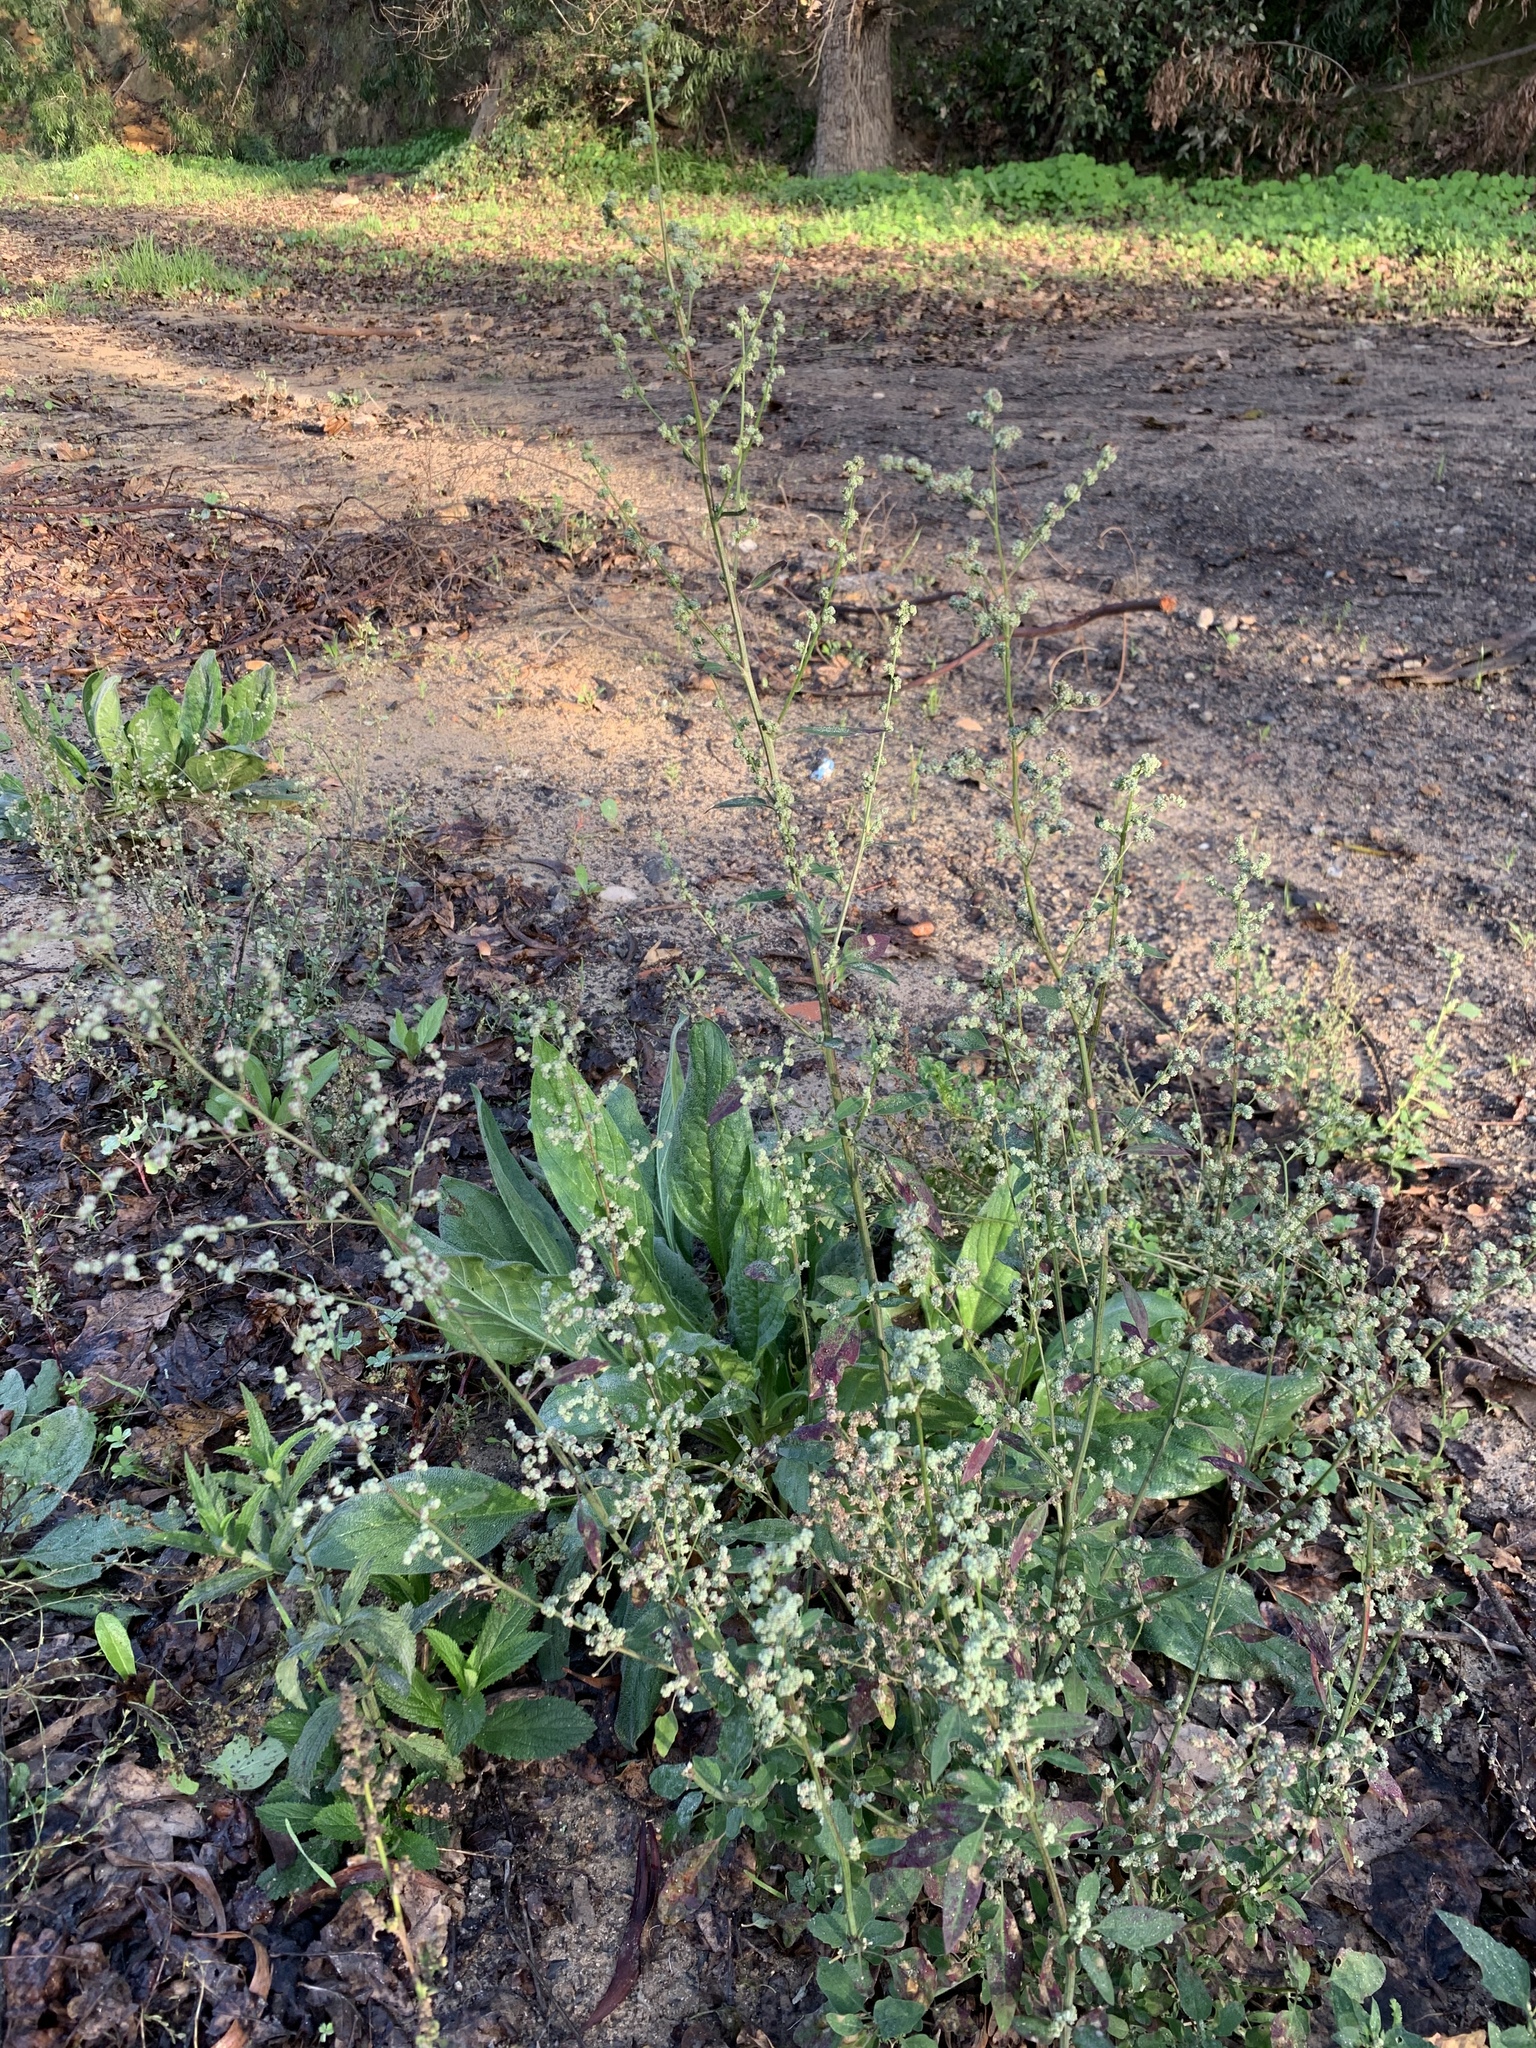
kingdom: Plantae
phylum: Tracheophyta
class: Magnoliopsida
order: Caryophyllales
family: Amaranthaceae
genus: Chenopodium
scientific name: Chenopodium album
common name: Fat-hen
